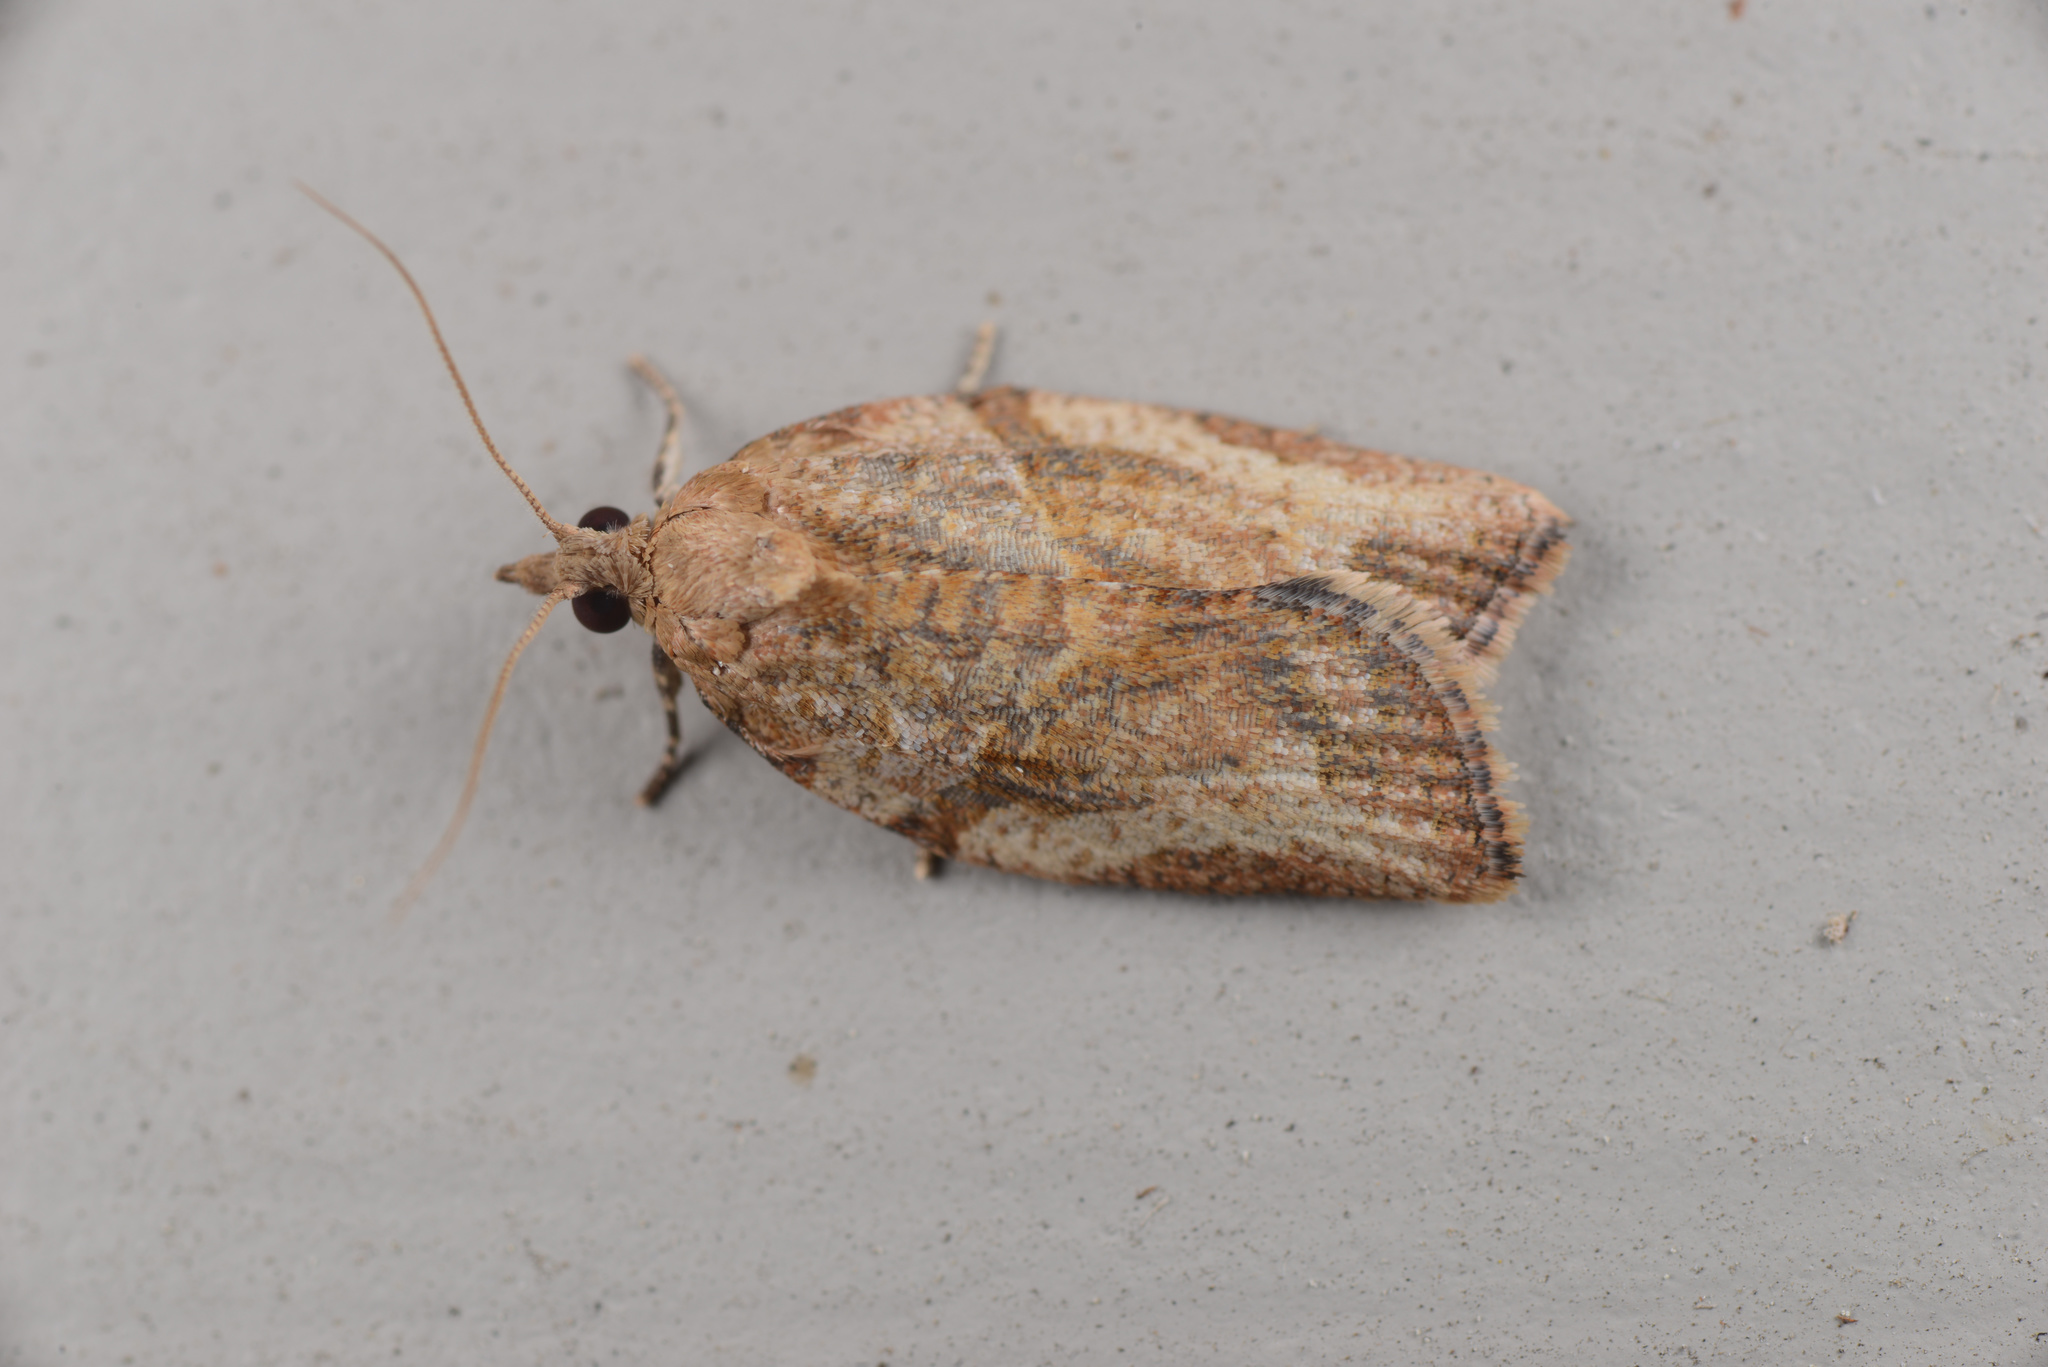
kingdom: Animalia
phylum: Arthropoda
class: Insecta
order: Lepidoptera
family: Tortricidae
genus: Epiphyas
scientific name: Epiphyas postvittana
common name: Light brown apple moth
